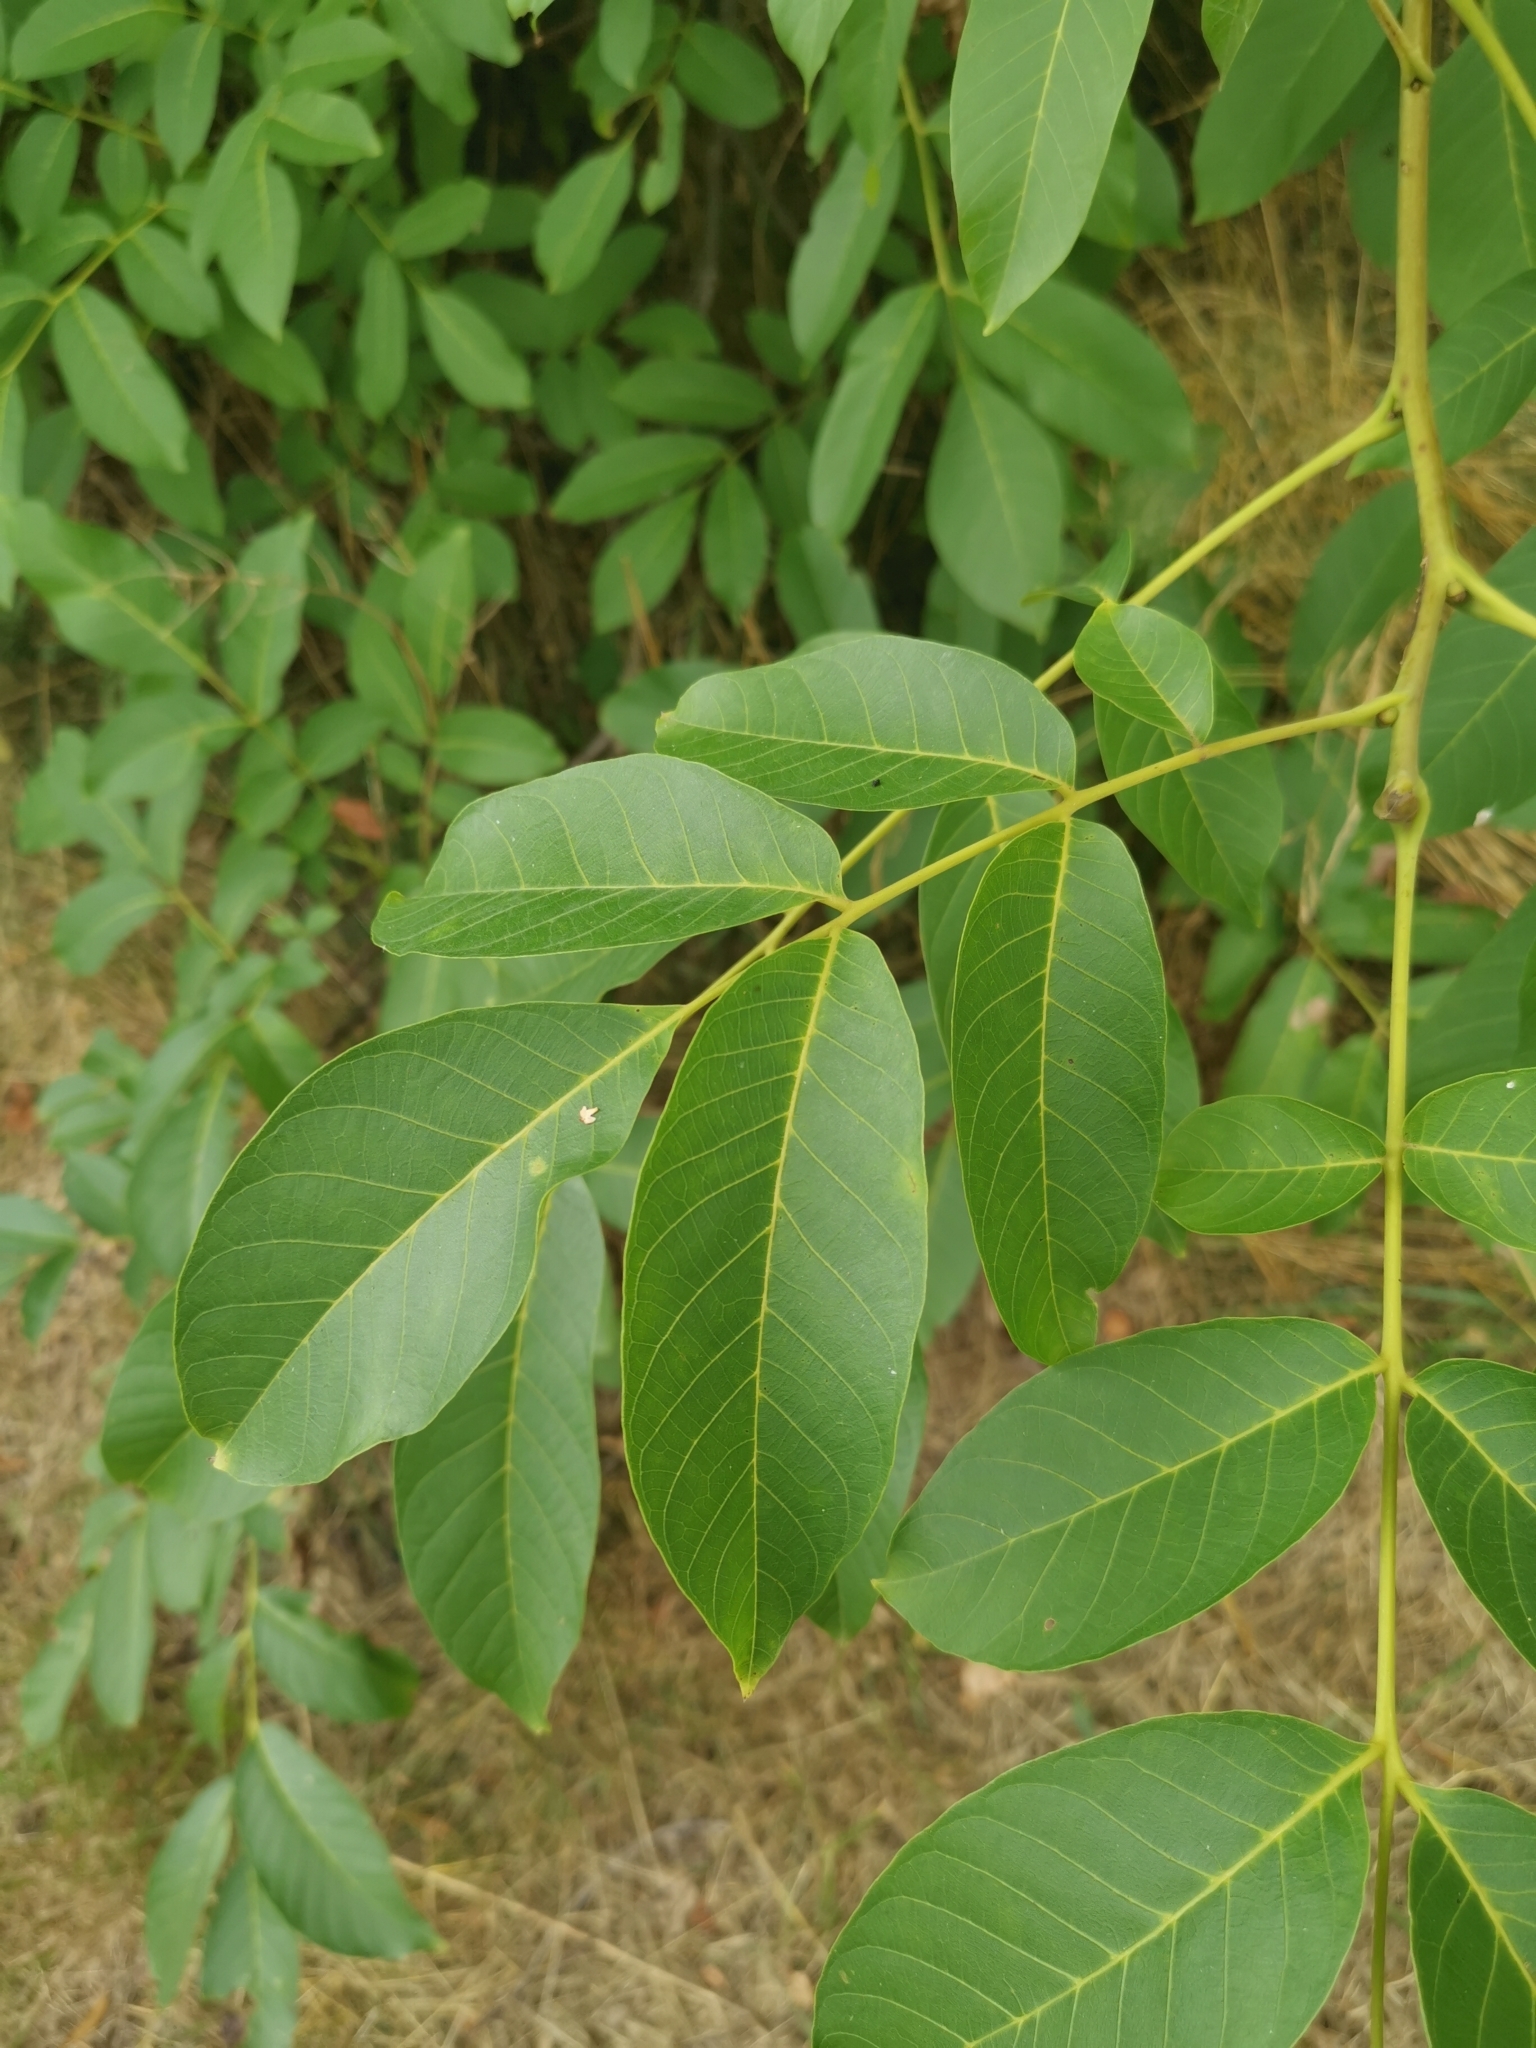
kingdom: Plantae
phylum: Tracheophyta
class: Magnoliopsida
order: Fagales
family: Juglandaceae
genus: Juglans
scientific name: Juglans regia
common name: Walnut
